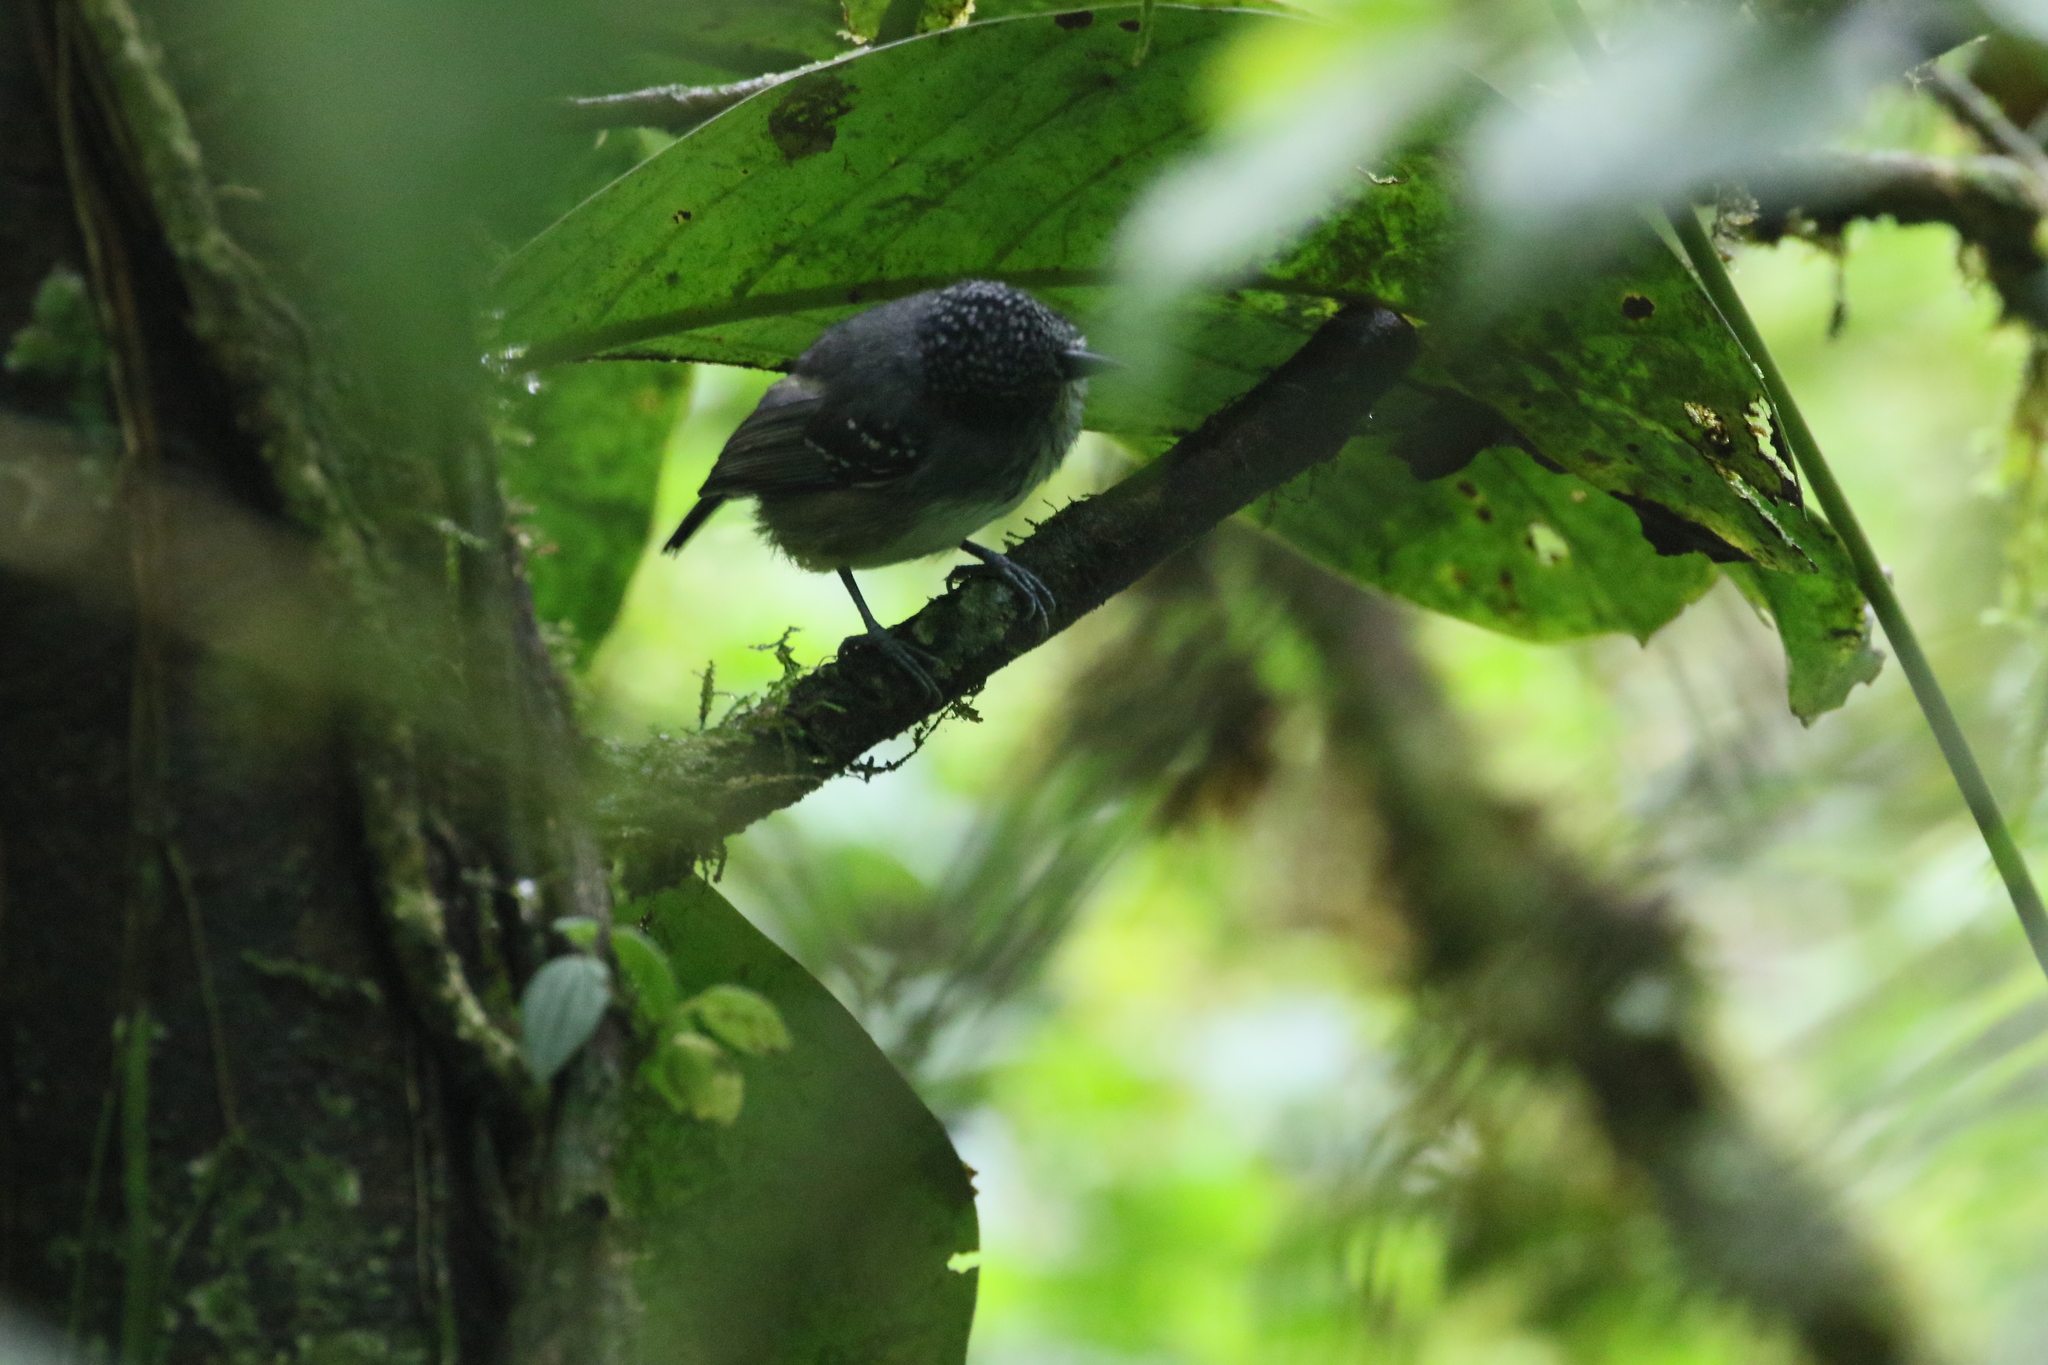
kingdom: Animalia
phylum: Chordata
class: Aves
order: Passeriformes
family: Thamnophilidae
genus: Dysithamnus
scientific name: Dysithamnus puncticeps
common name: Spot-crowned antvireo
